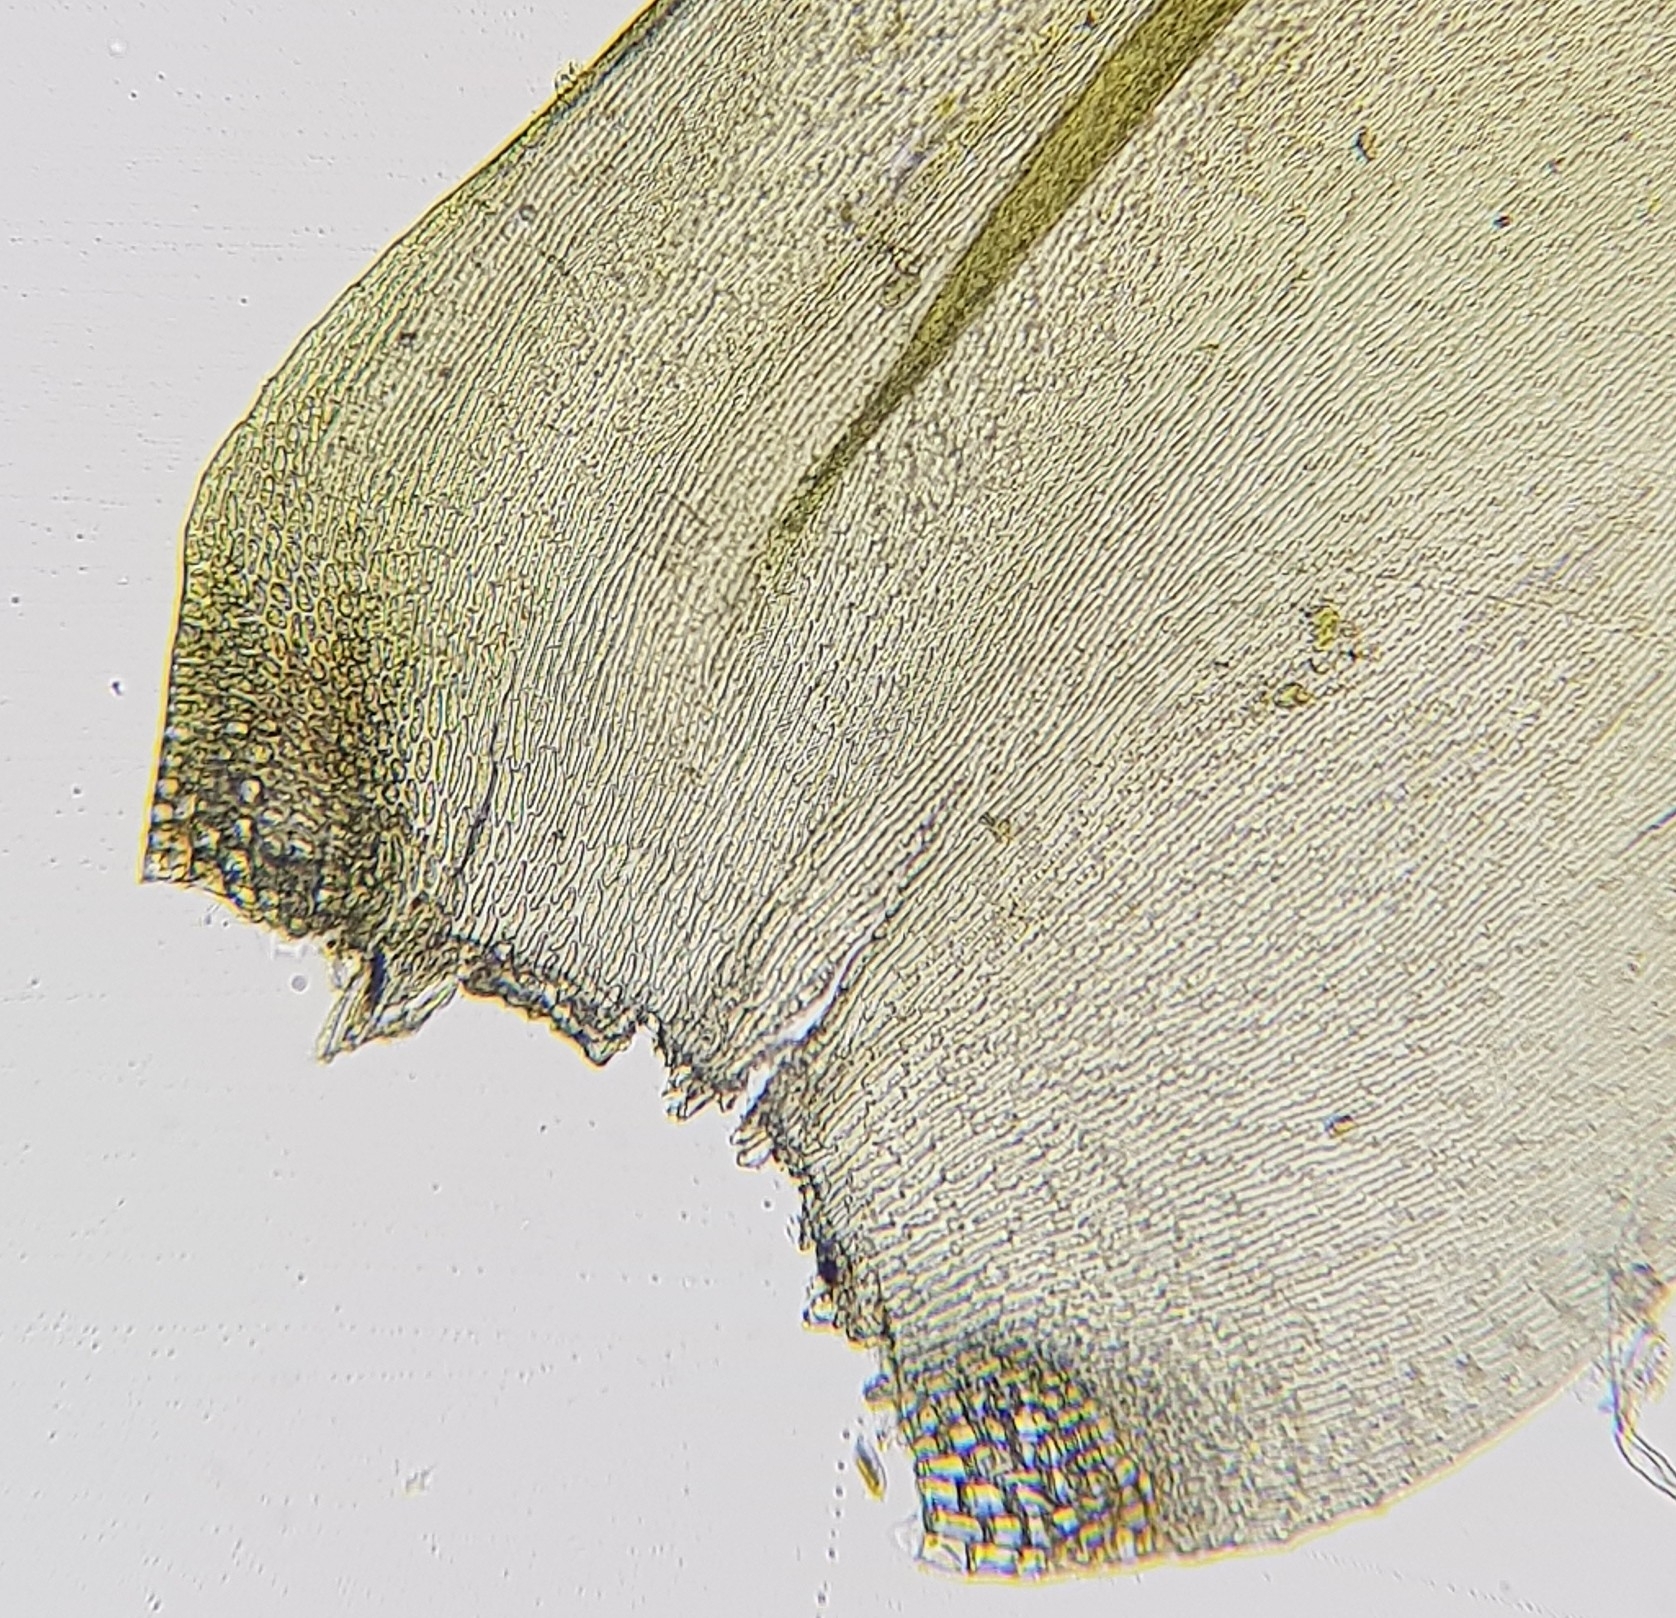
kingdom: Plantae
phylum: Bryophyta
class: Bryopsida
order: Hypnales
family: Hypnaceae
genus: Hypnum
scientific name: Hypnum cupressiforme
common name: Cypress-leaved plait-moss
